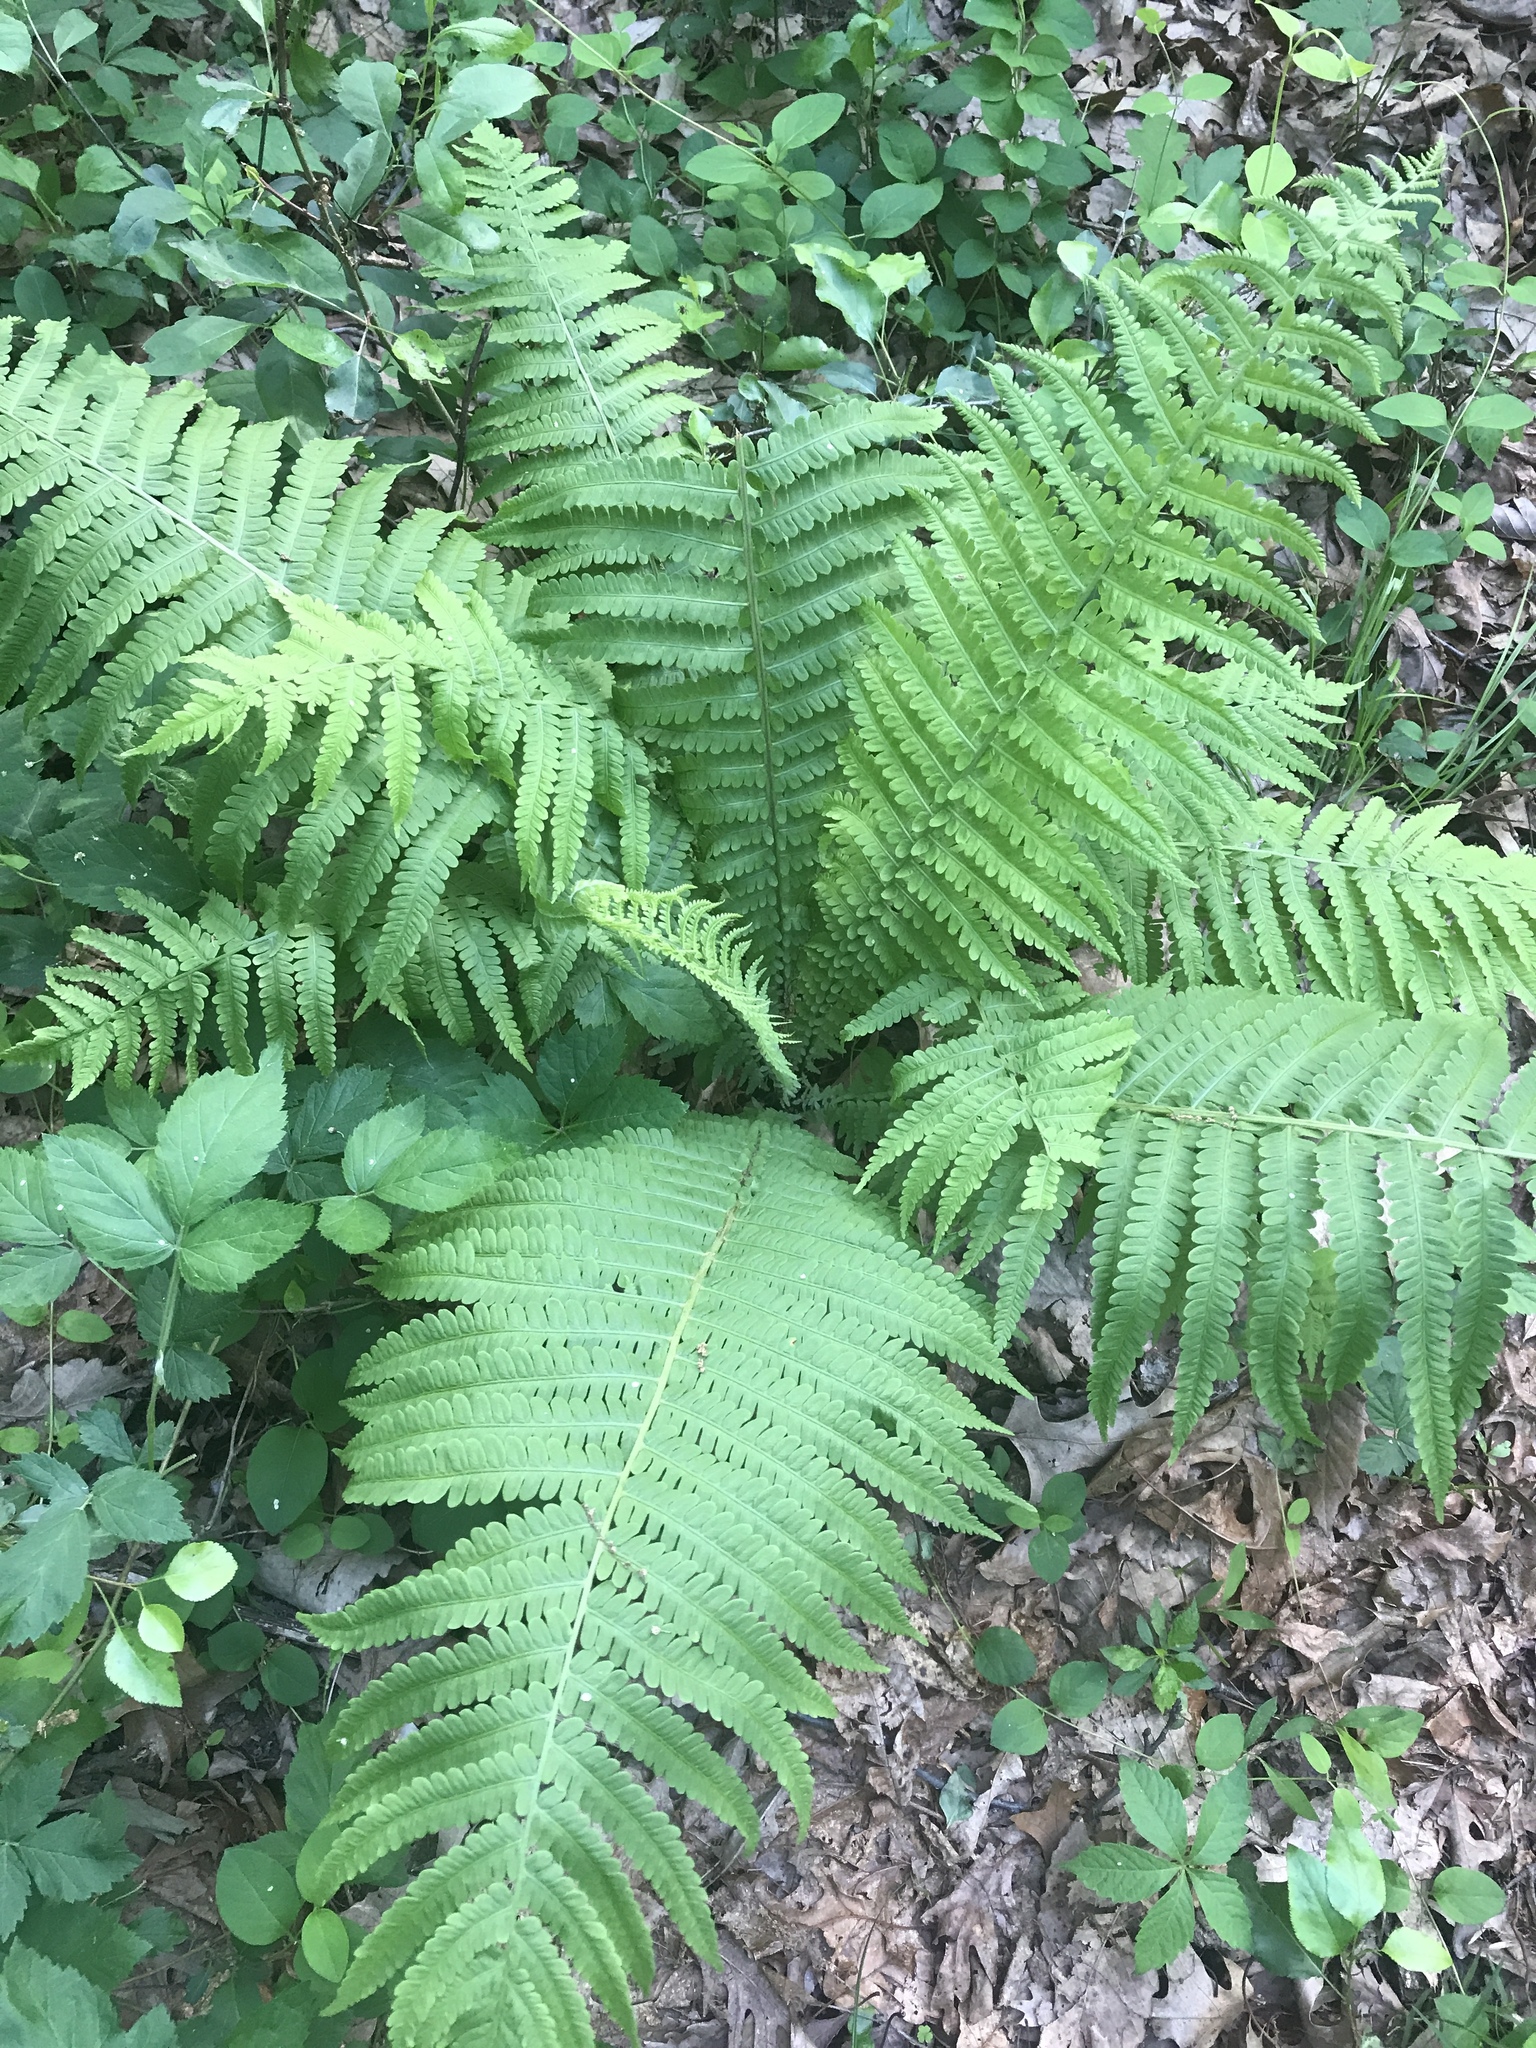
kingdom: Plantae
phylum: Tracheophyta
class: Polypodiopsida
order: Polypodiales
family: Onocleaceae
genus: Matteuccia
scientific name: Matteuccia struthiopteris
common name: Ostrich fern
